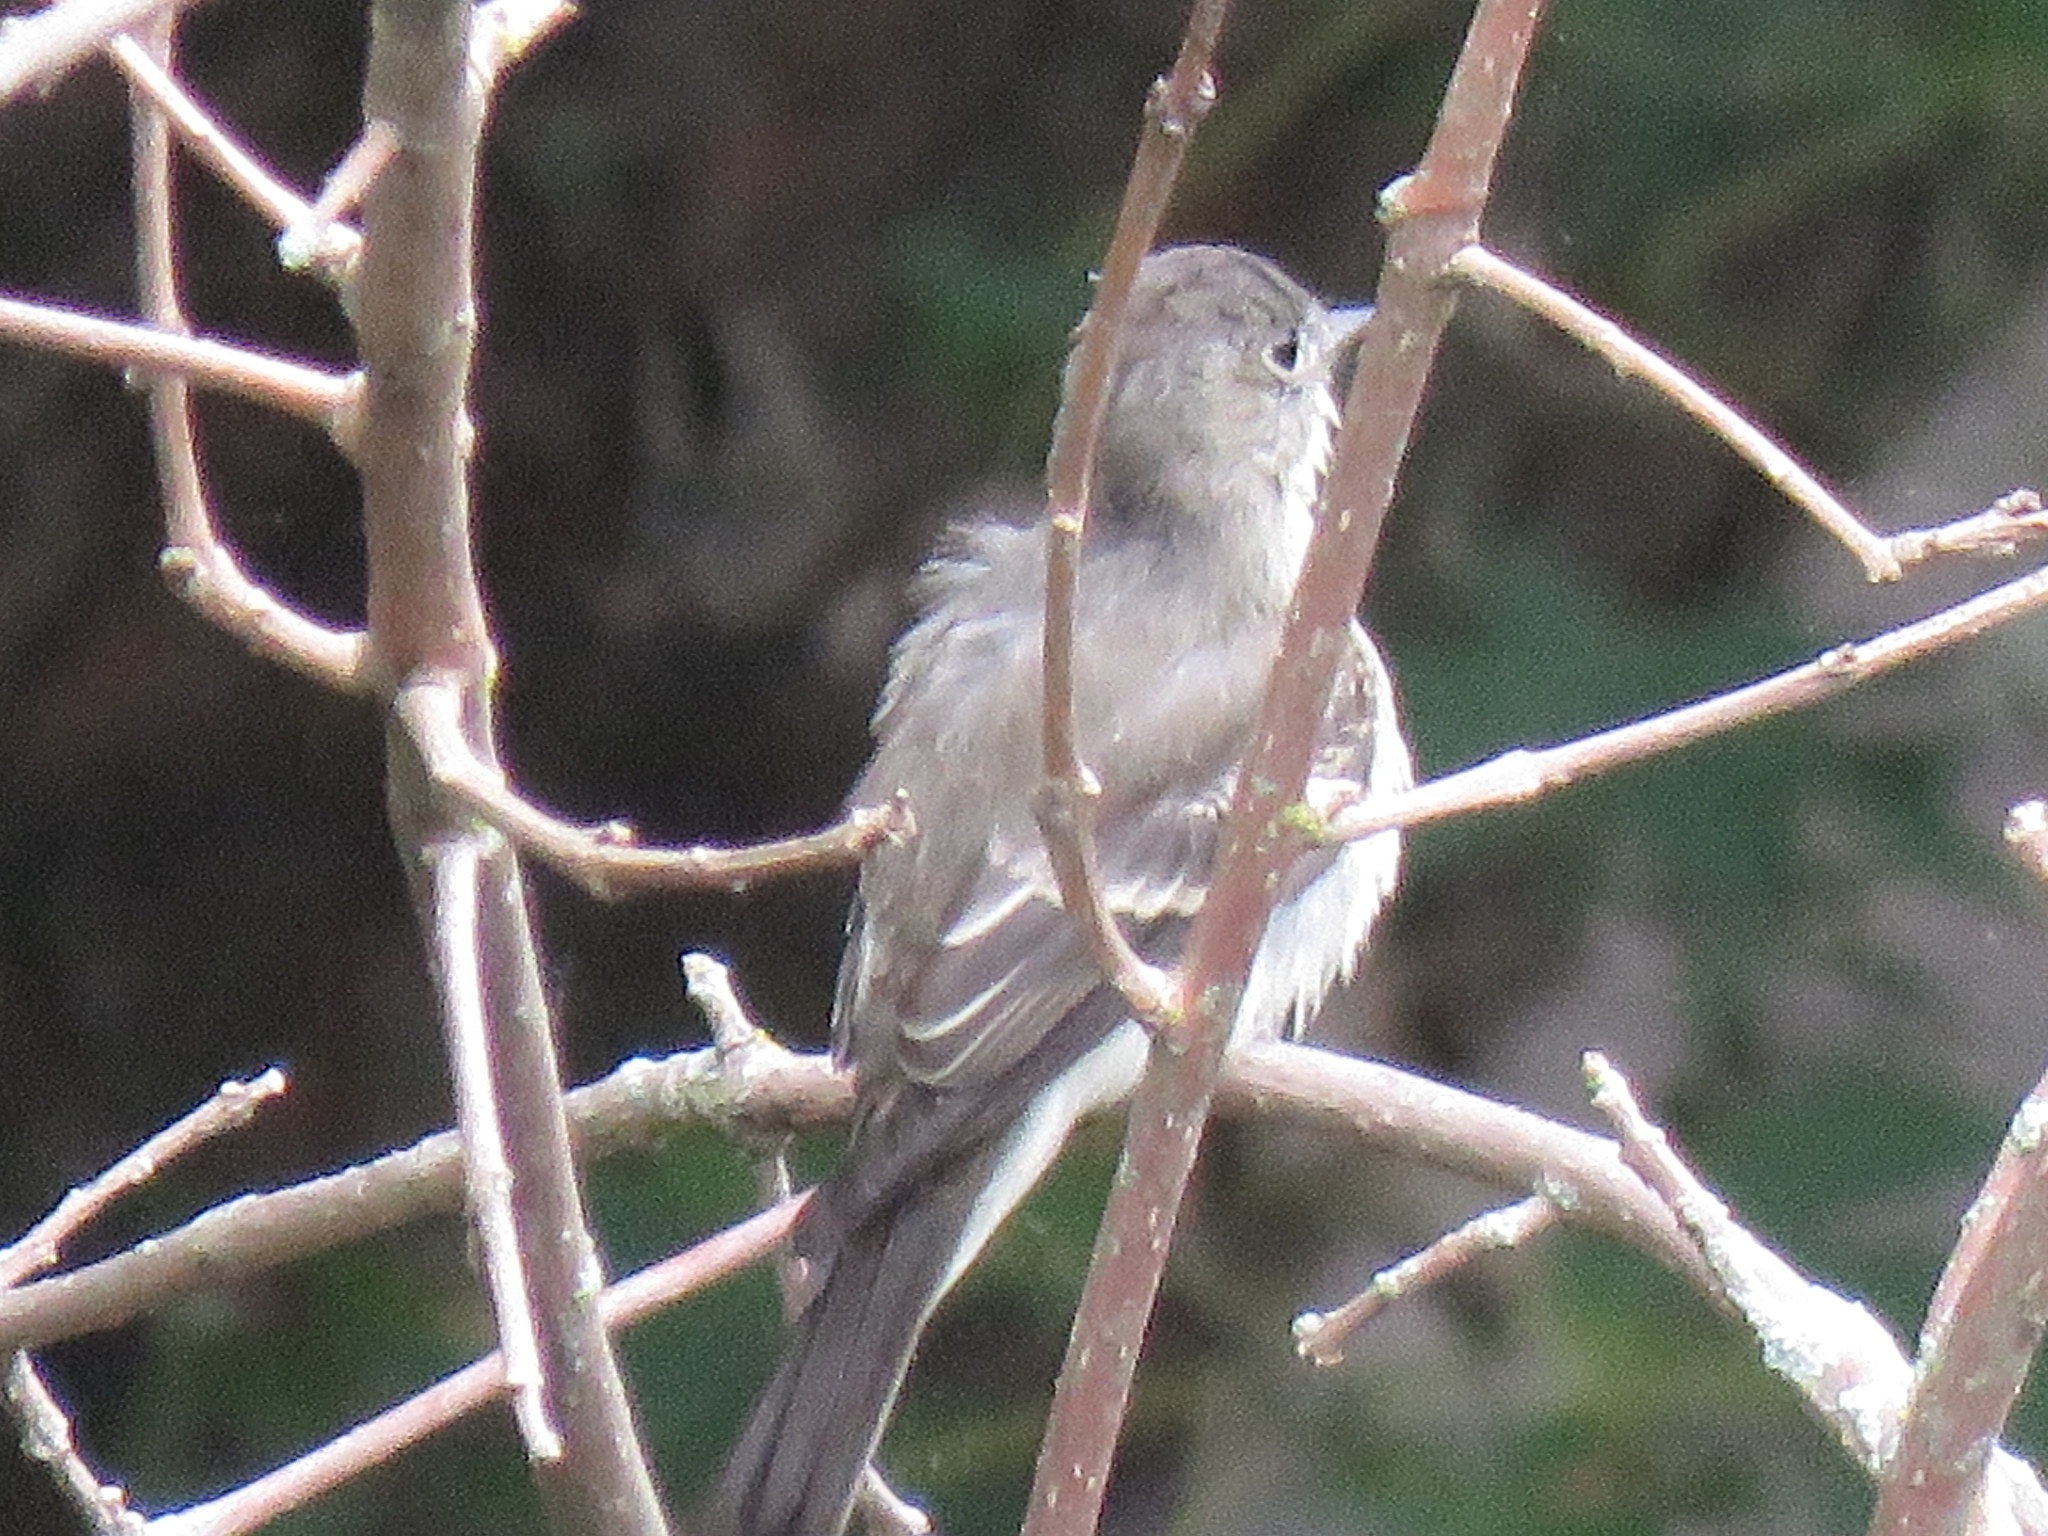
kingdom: Animalia
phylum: Chordata
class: Aves
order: Passeriformes
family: Tyrannidae
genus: Empidonax
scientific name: Empidonax
